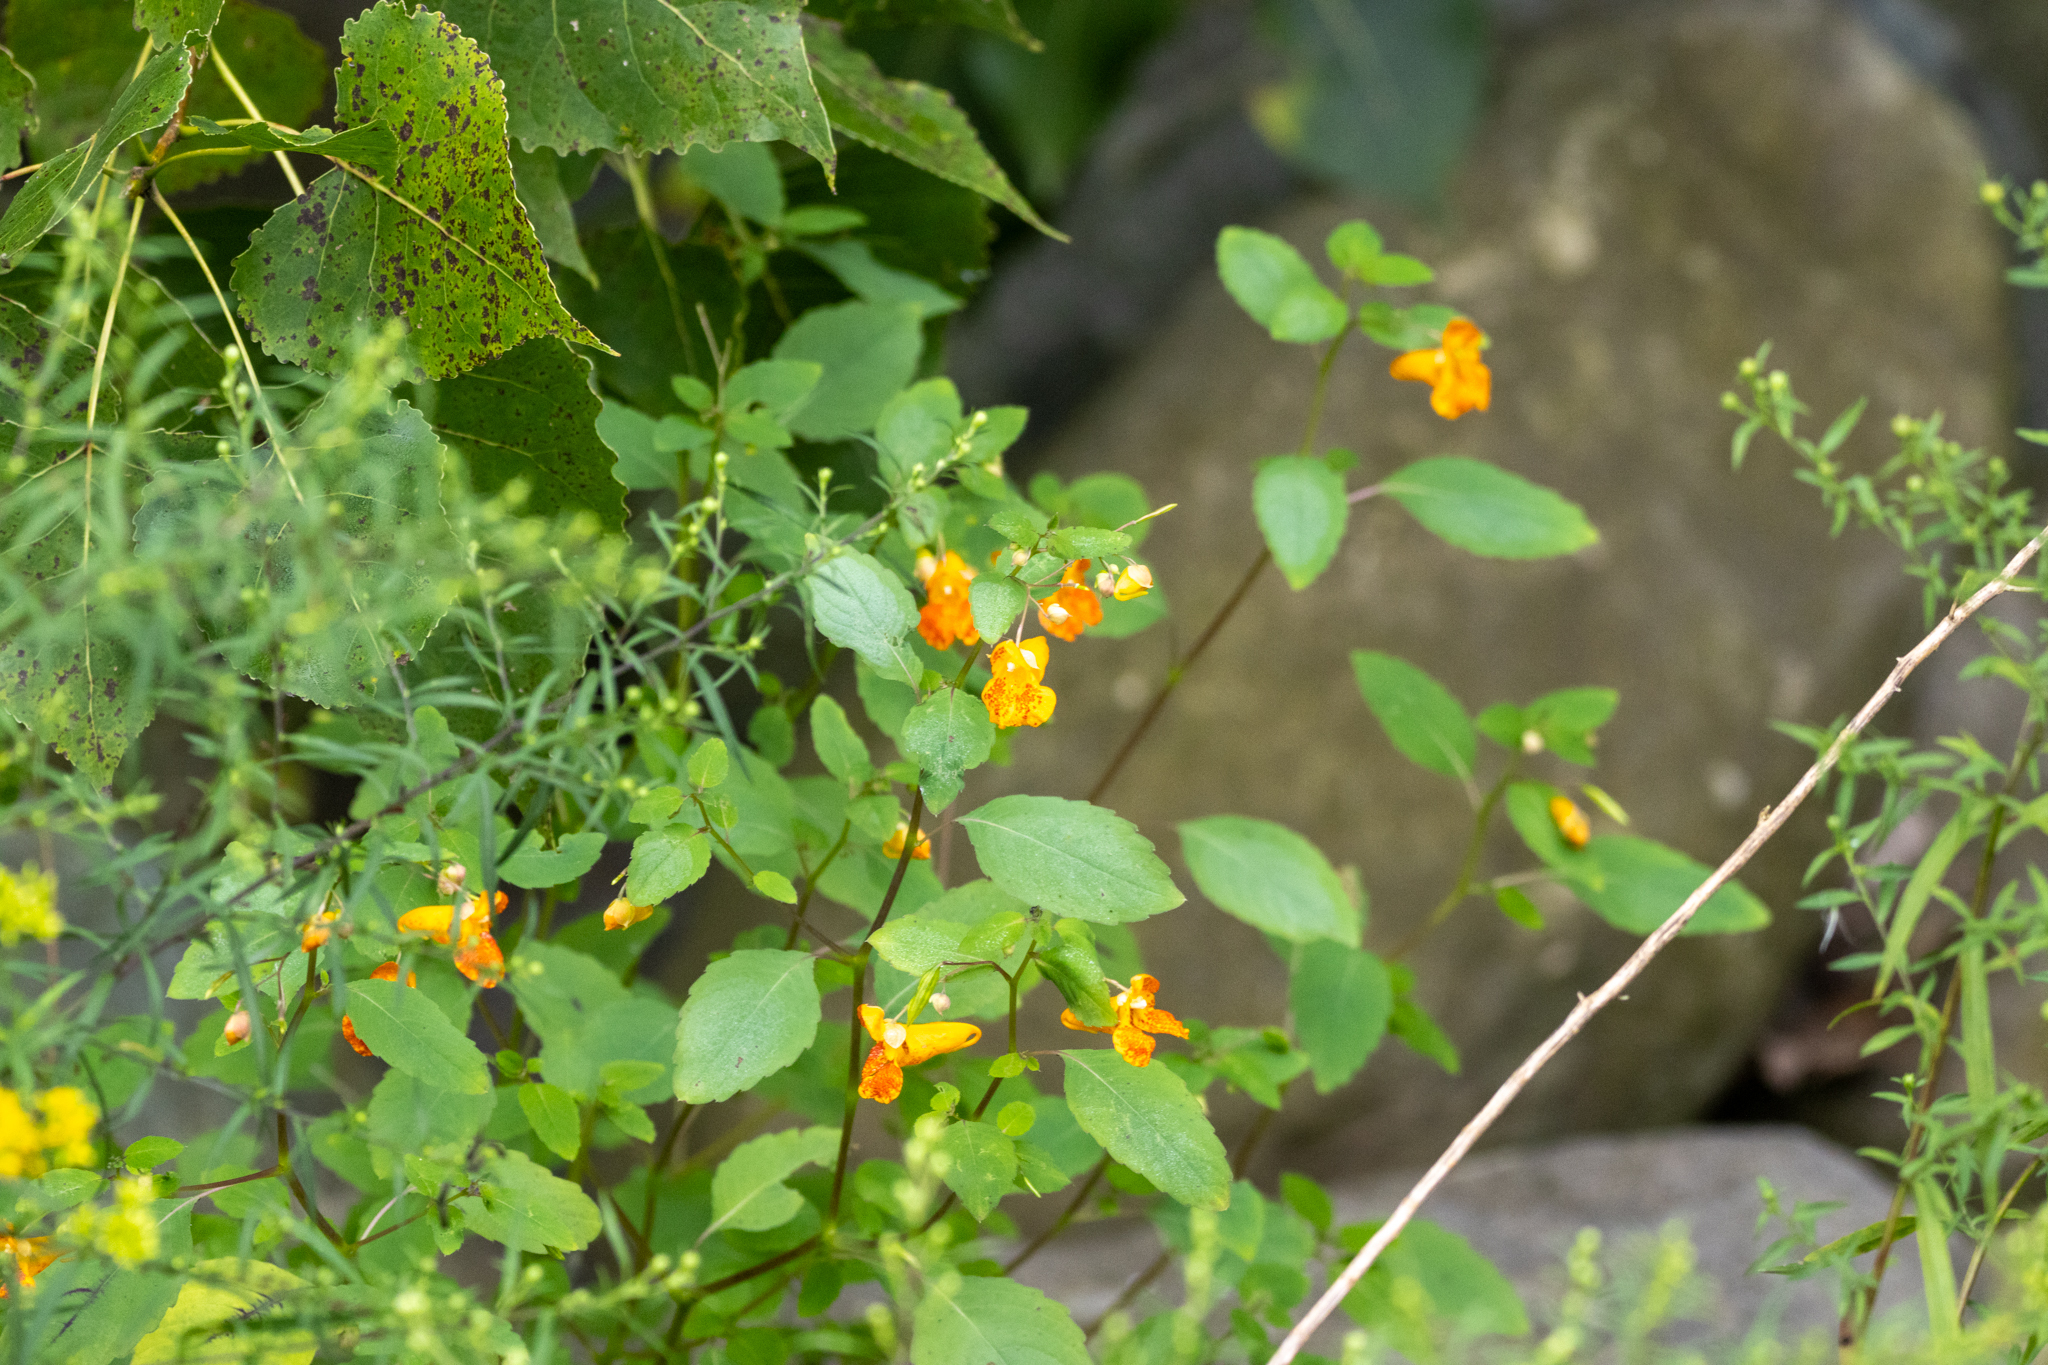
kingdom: Plantae
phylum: Tracheophyta
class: Magnoliopsida
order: Ericales
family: Balsaminaceae
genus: Impatiens
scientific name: Impatiens capensis
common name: Orange balsam
